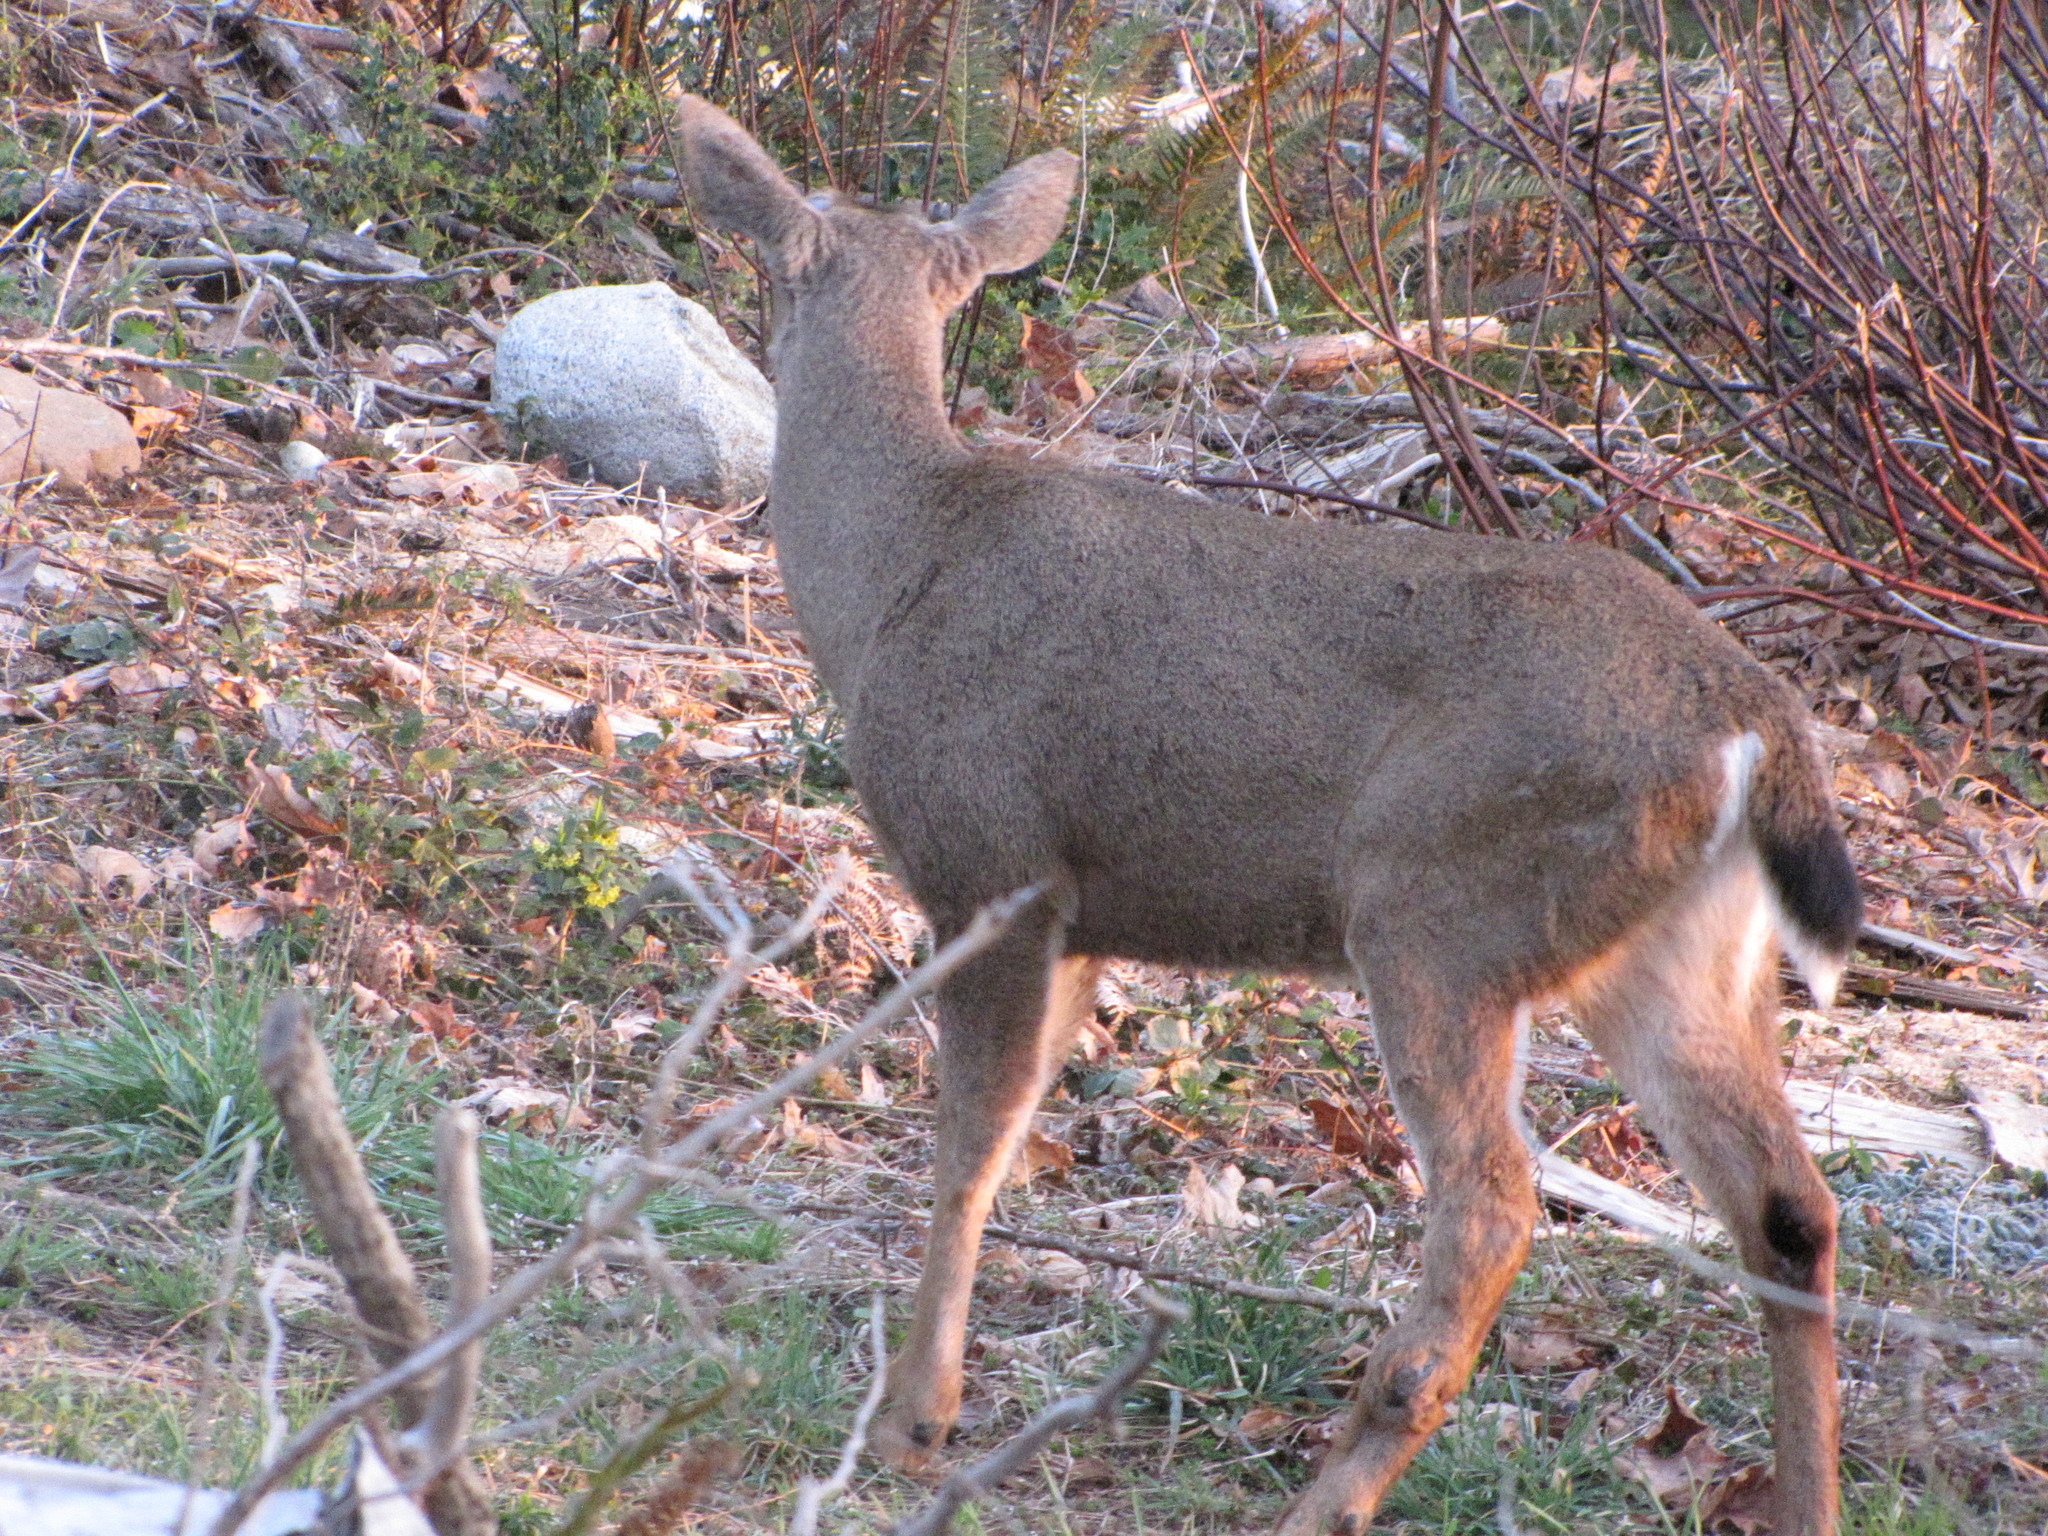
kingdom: Animalia
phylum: Chordata
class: Mammalia
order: Artiodactyla
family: Cervidae
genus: Odocoileus
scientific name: Odocoileus hemionus
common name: Mule deer
